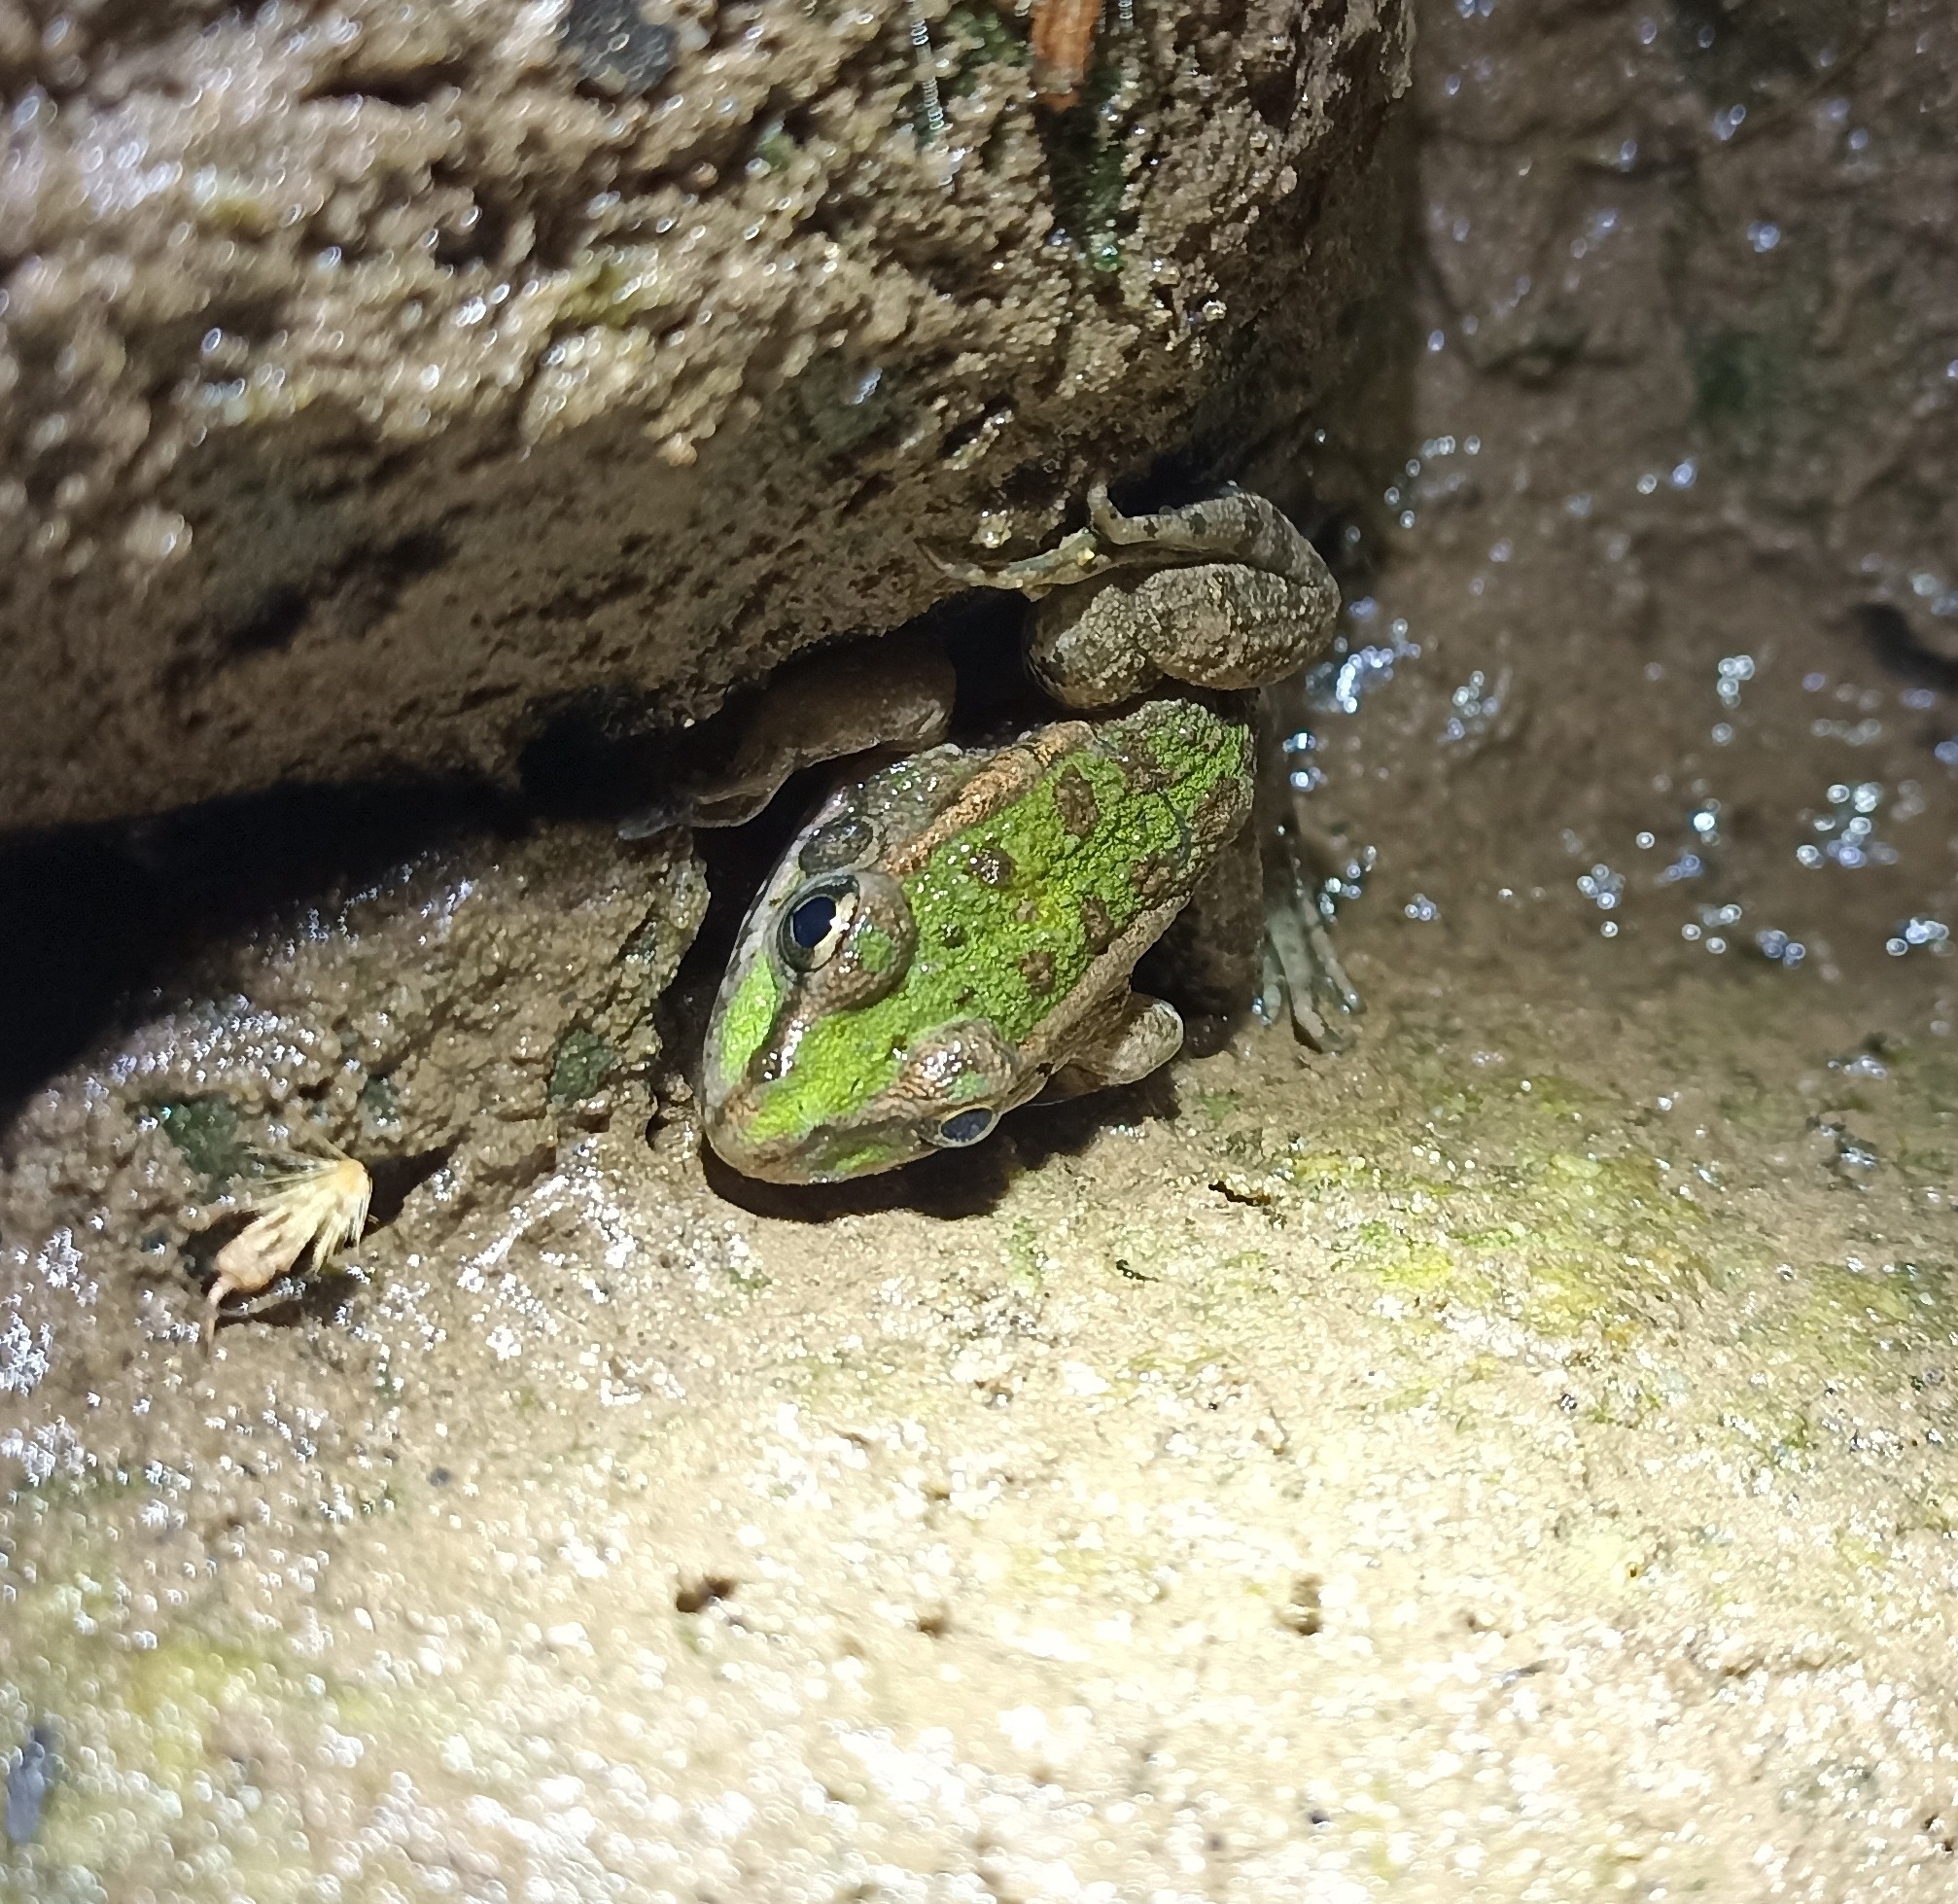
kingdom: Animalia
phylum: Chordata
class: Amphibia
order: Anura
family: Ranidae
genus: Pelophylax
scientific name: Pelophylax perezi
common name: Perez's frog
